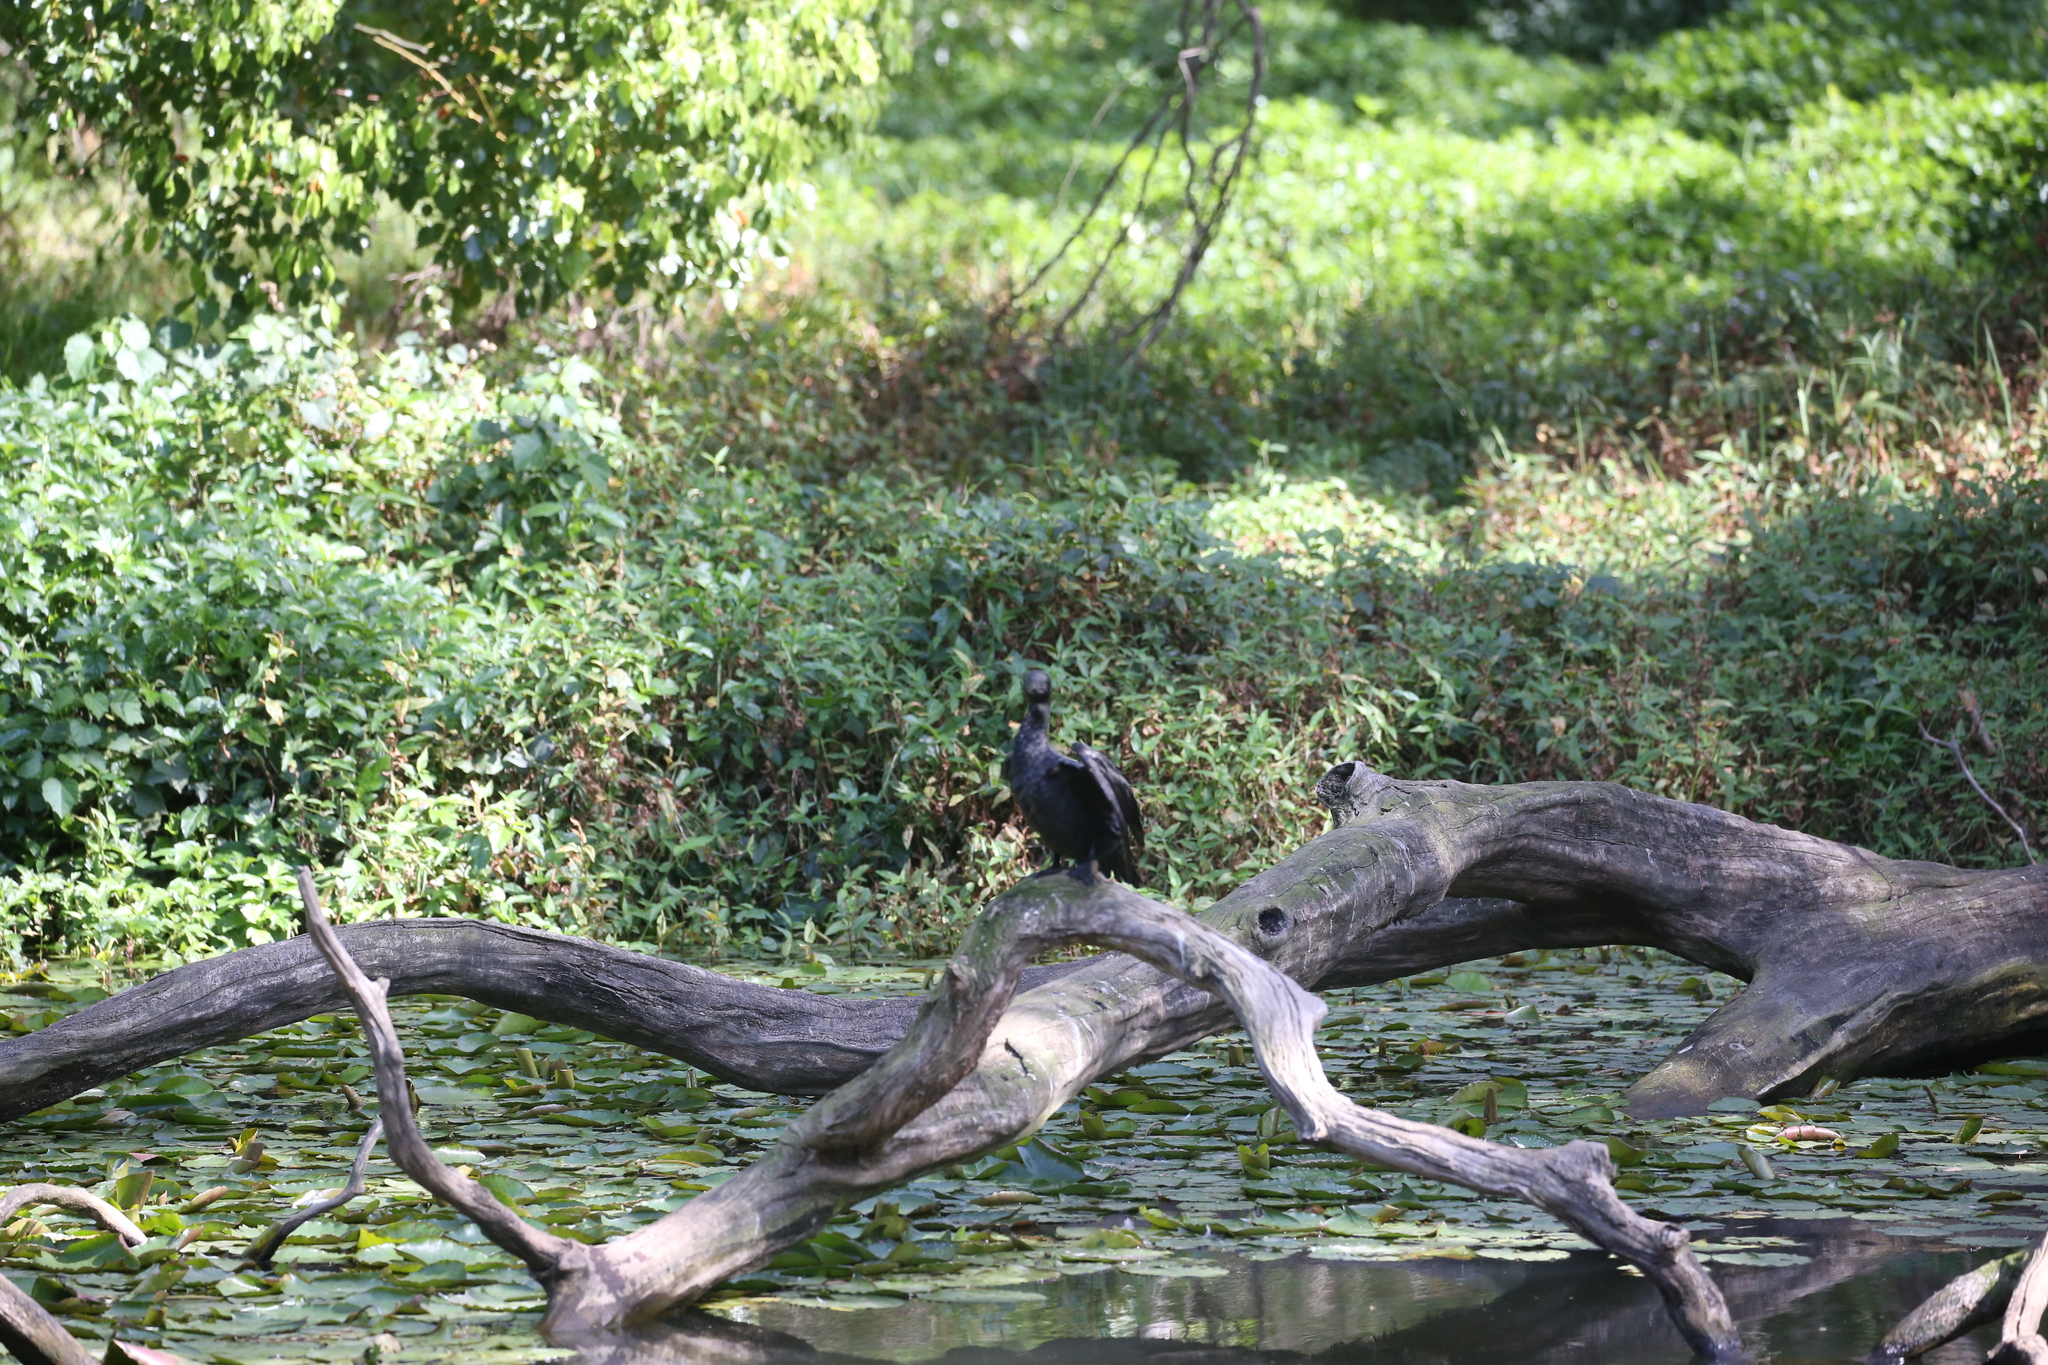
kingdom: Animalia
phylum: Chordata
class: Aves
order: Suliformes
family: Phalacrocoracidae
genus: Phalacrocorax
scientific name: Phalacrocorax sulcirostris
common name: Little black cormorant
